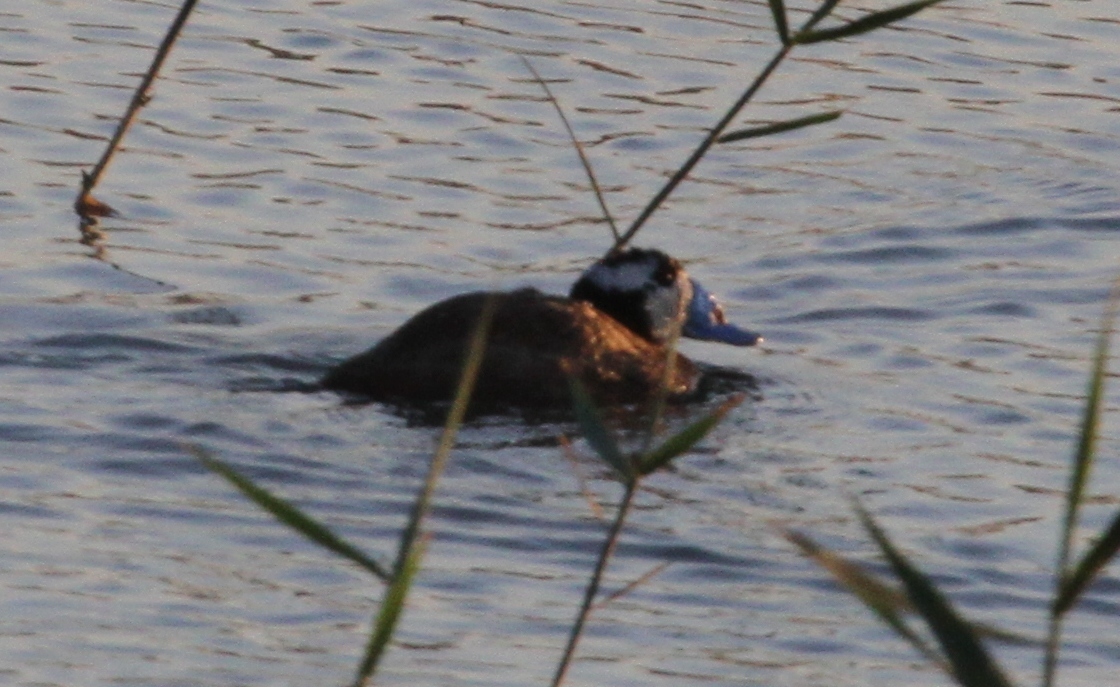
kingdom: Animalia
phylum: Chordata
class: Aves
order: Anseriformes
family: Anatidae
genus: Oxyura
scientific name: Oxyura leucocephala
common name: White-headed duck
